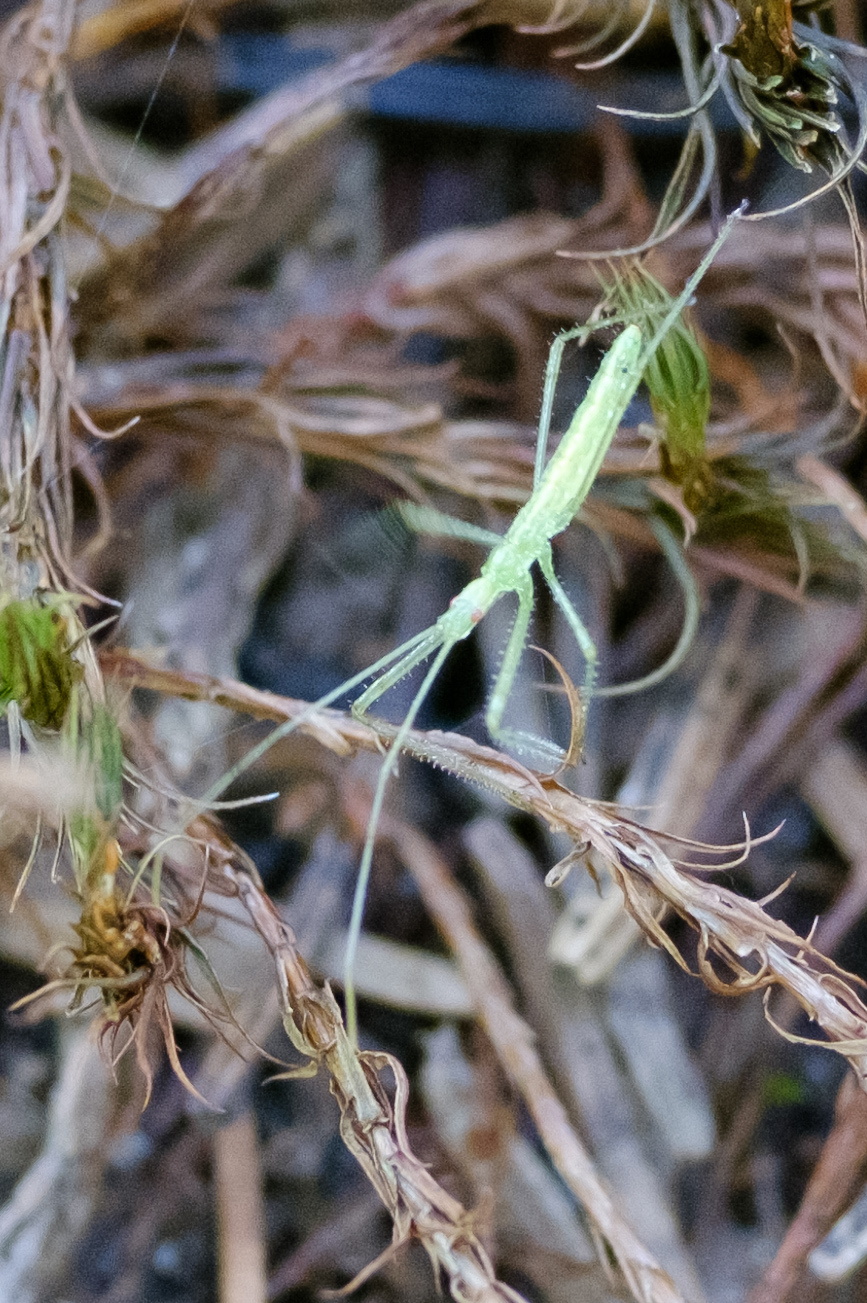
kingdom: Animalia
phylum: Arthropoda
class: Insecta
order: Hemiptera
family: Reduviidae
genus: Zelus
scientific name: Zelus luridus
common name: Pale green assassin bug
